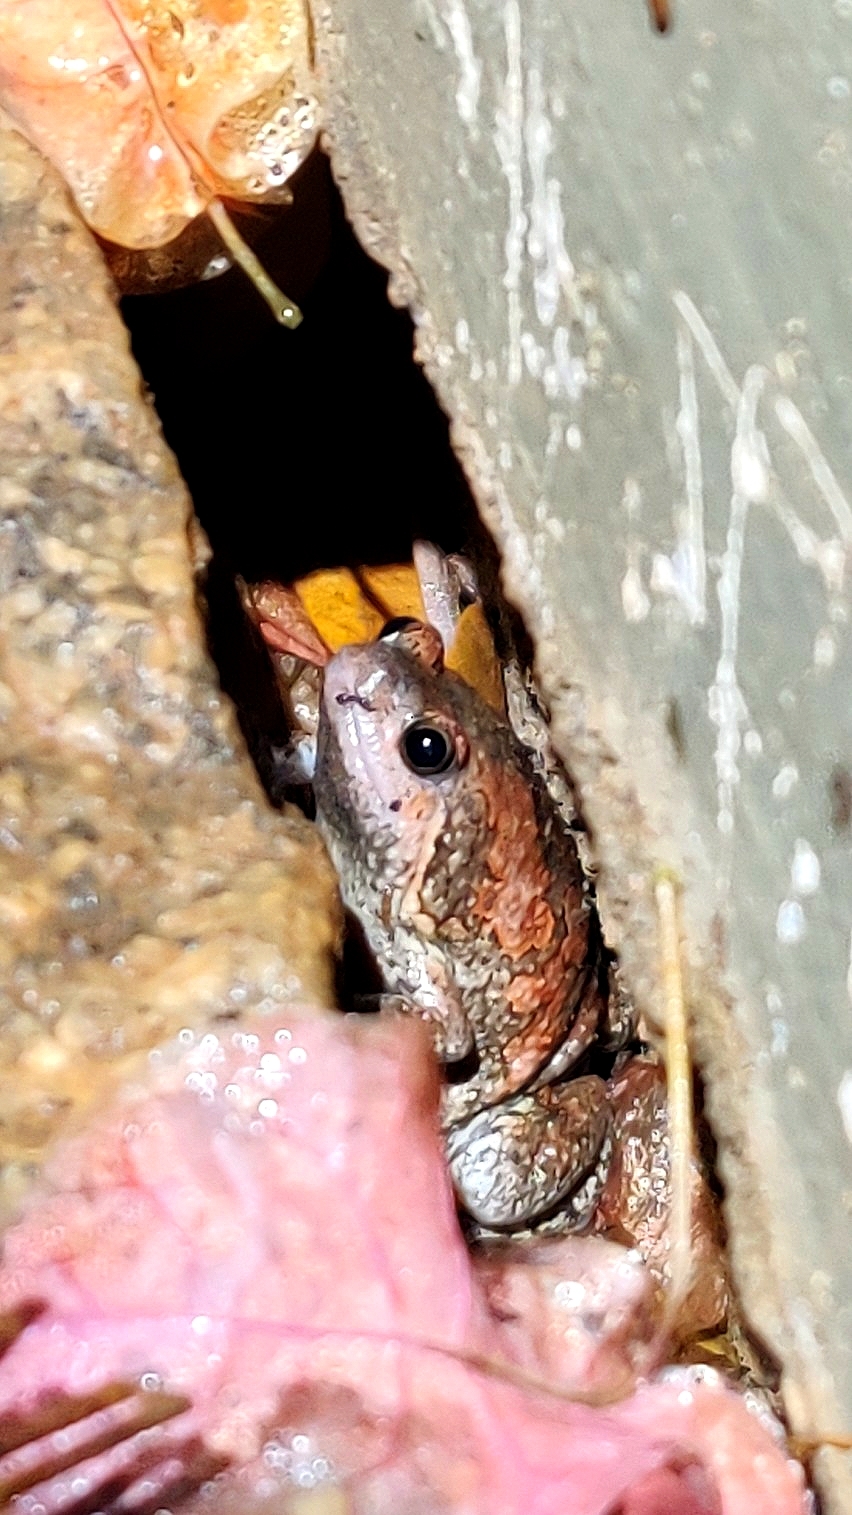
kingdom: Animalia
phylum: Chordata
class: Amphibia
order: Anura
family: Microhylidae
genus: Uperodon
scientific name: Uperodon taprobanicus
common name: Ceylon kaloula
